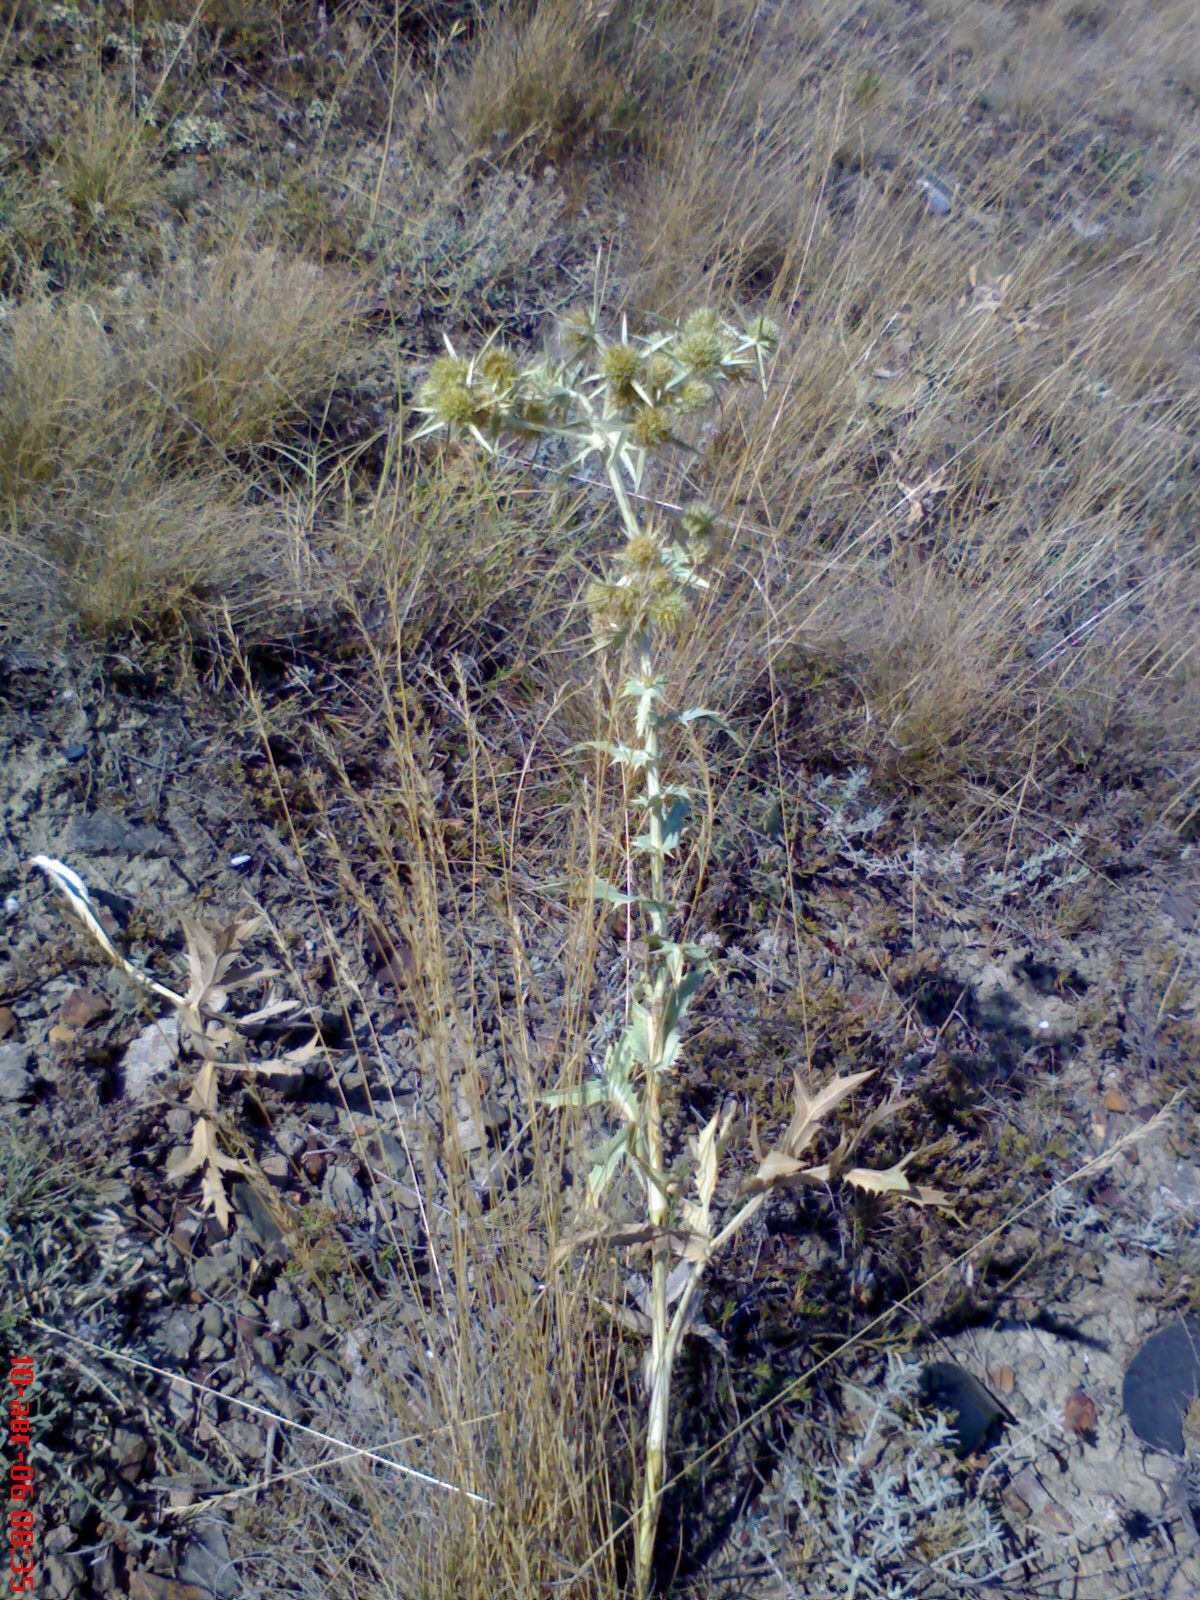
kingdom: Plantae
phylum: Tracheophyta
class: Magnoliopsida
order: Apiales
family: Apiaceae
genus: Eryngium
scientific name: Eryngium campestre
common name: Field eryngo
